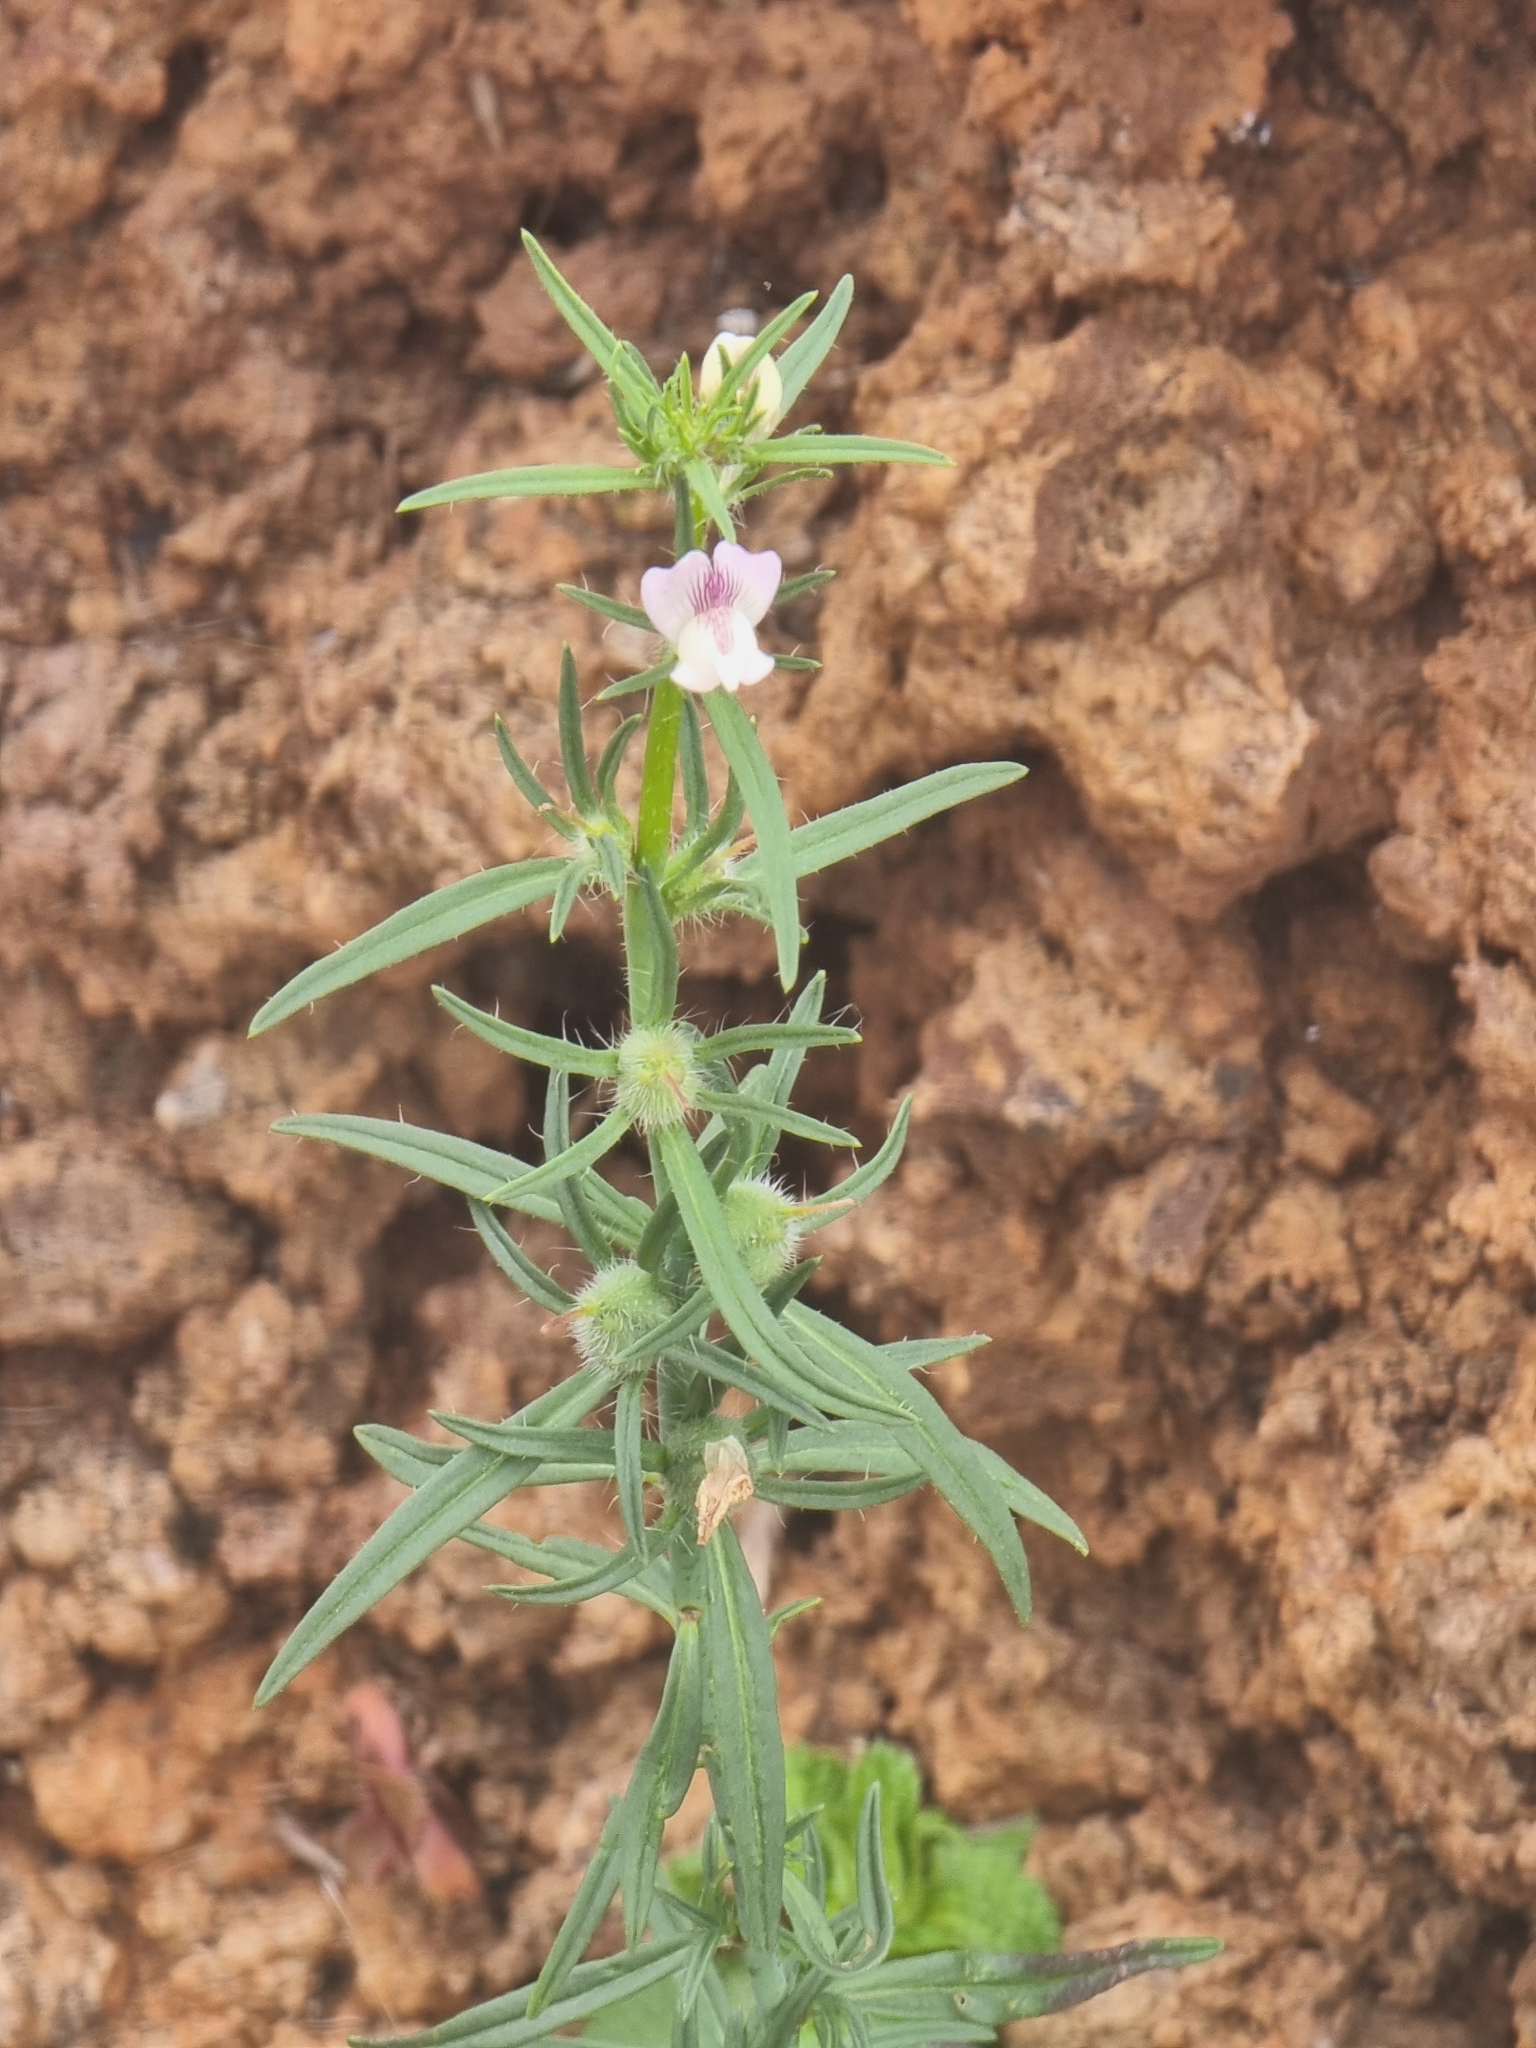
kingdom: Plantae
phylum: Tracheophyta
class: Magnoliopsida
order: Lamiales
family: Plantaginaceae
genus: Misopates
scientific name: Misopates orontium
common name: Weasel's-snout
